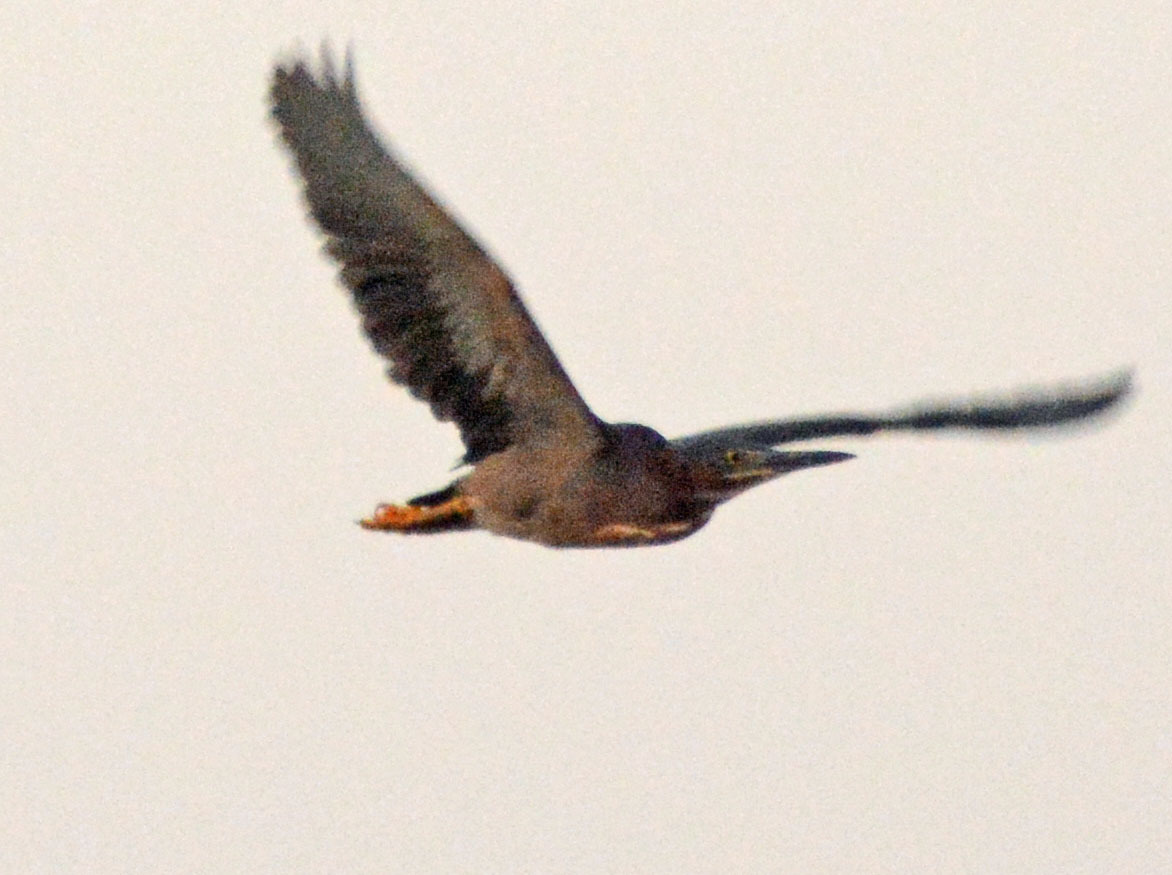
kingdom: Animalia
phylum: Chordata
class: Aves
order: Pelecaniformes
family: Ardeidae
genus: Butorides
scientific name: Butorides virescens
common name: Green heron
